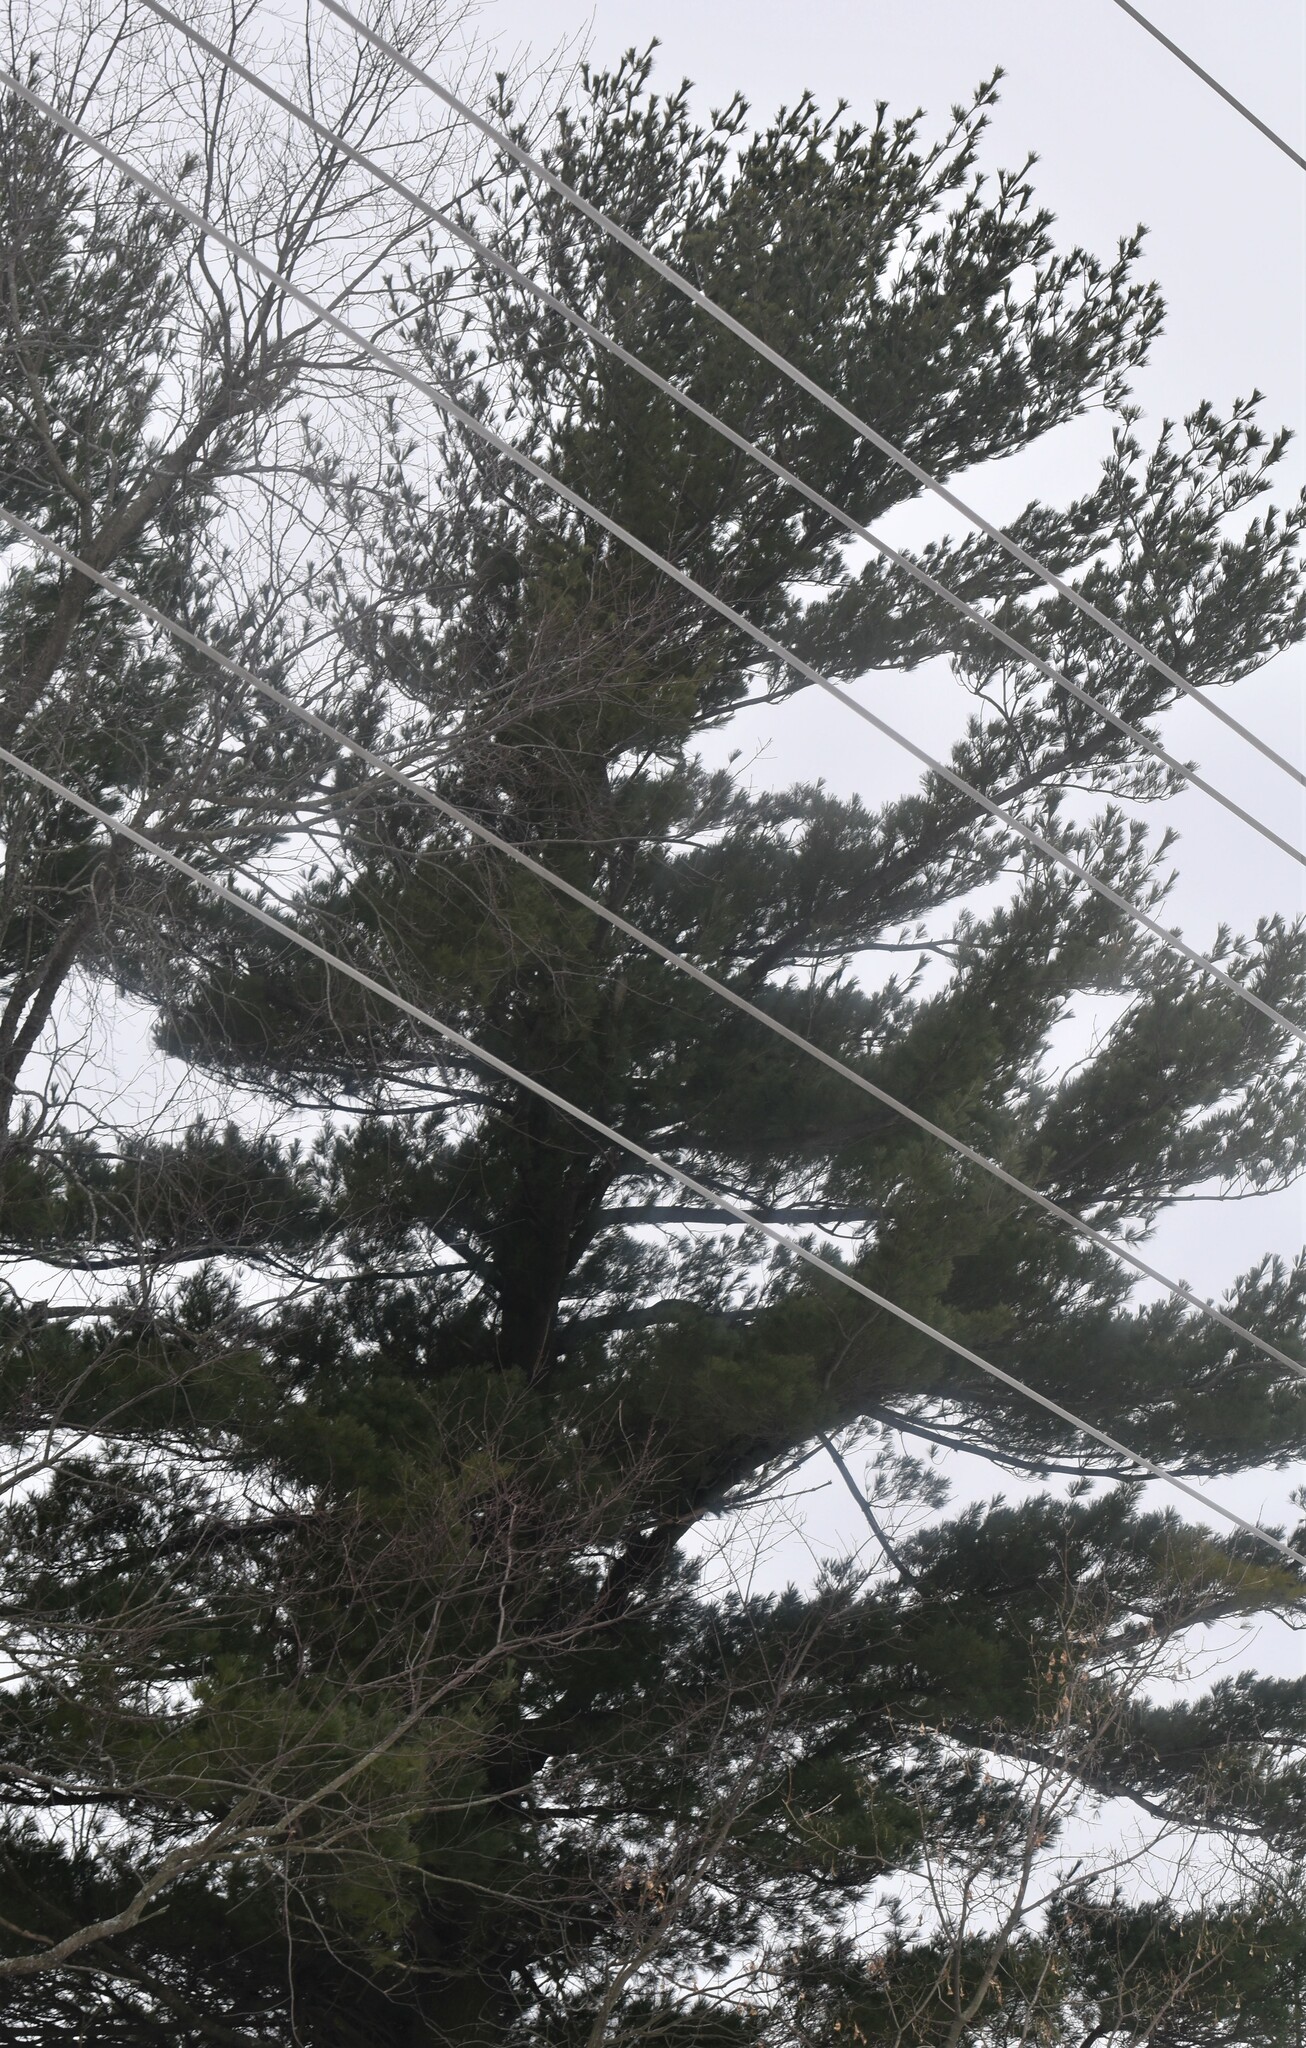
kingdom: Plantae
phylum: Tracheophyta
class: Pinopsida
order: Pinales
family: Pinaceae
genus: Pinus
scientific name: Pinus strobus
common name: Weymouth pine
